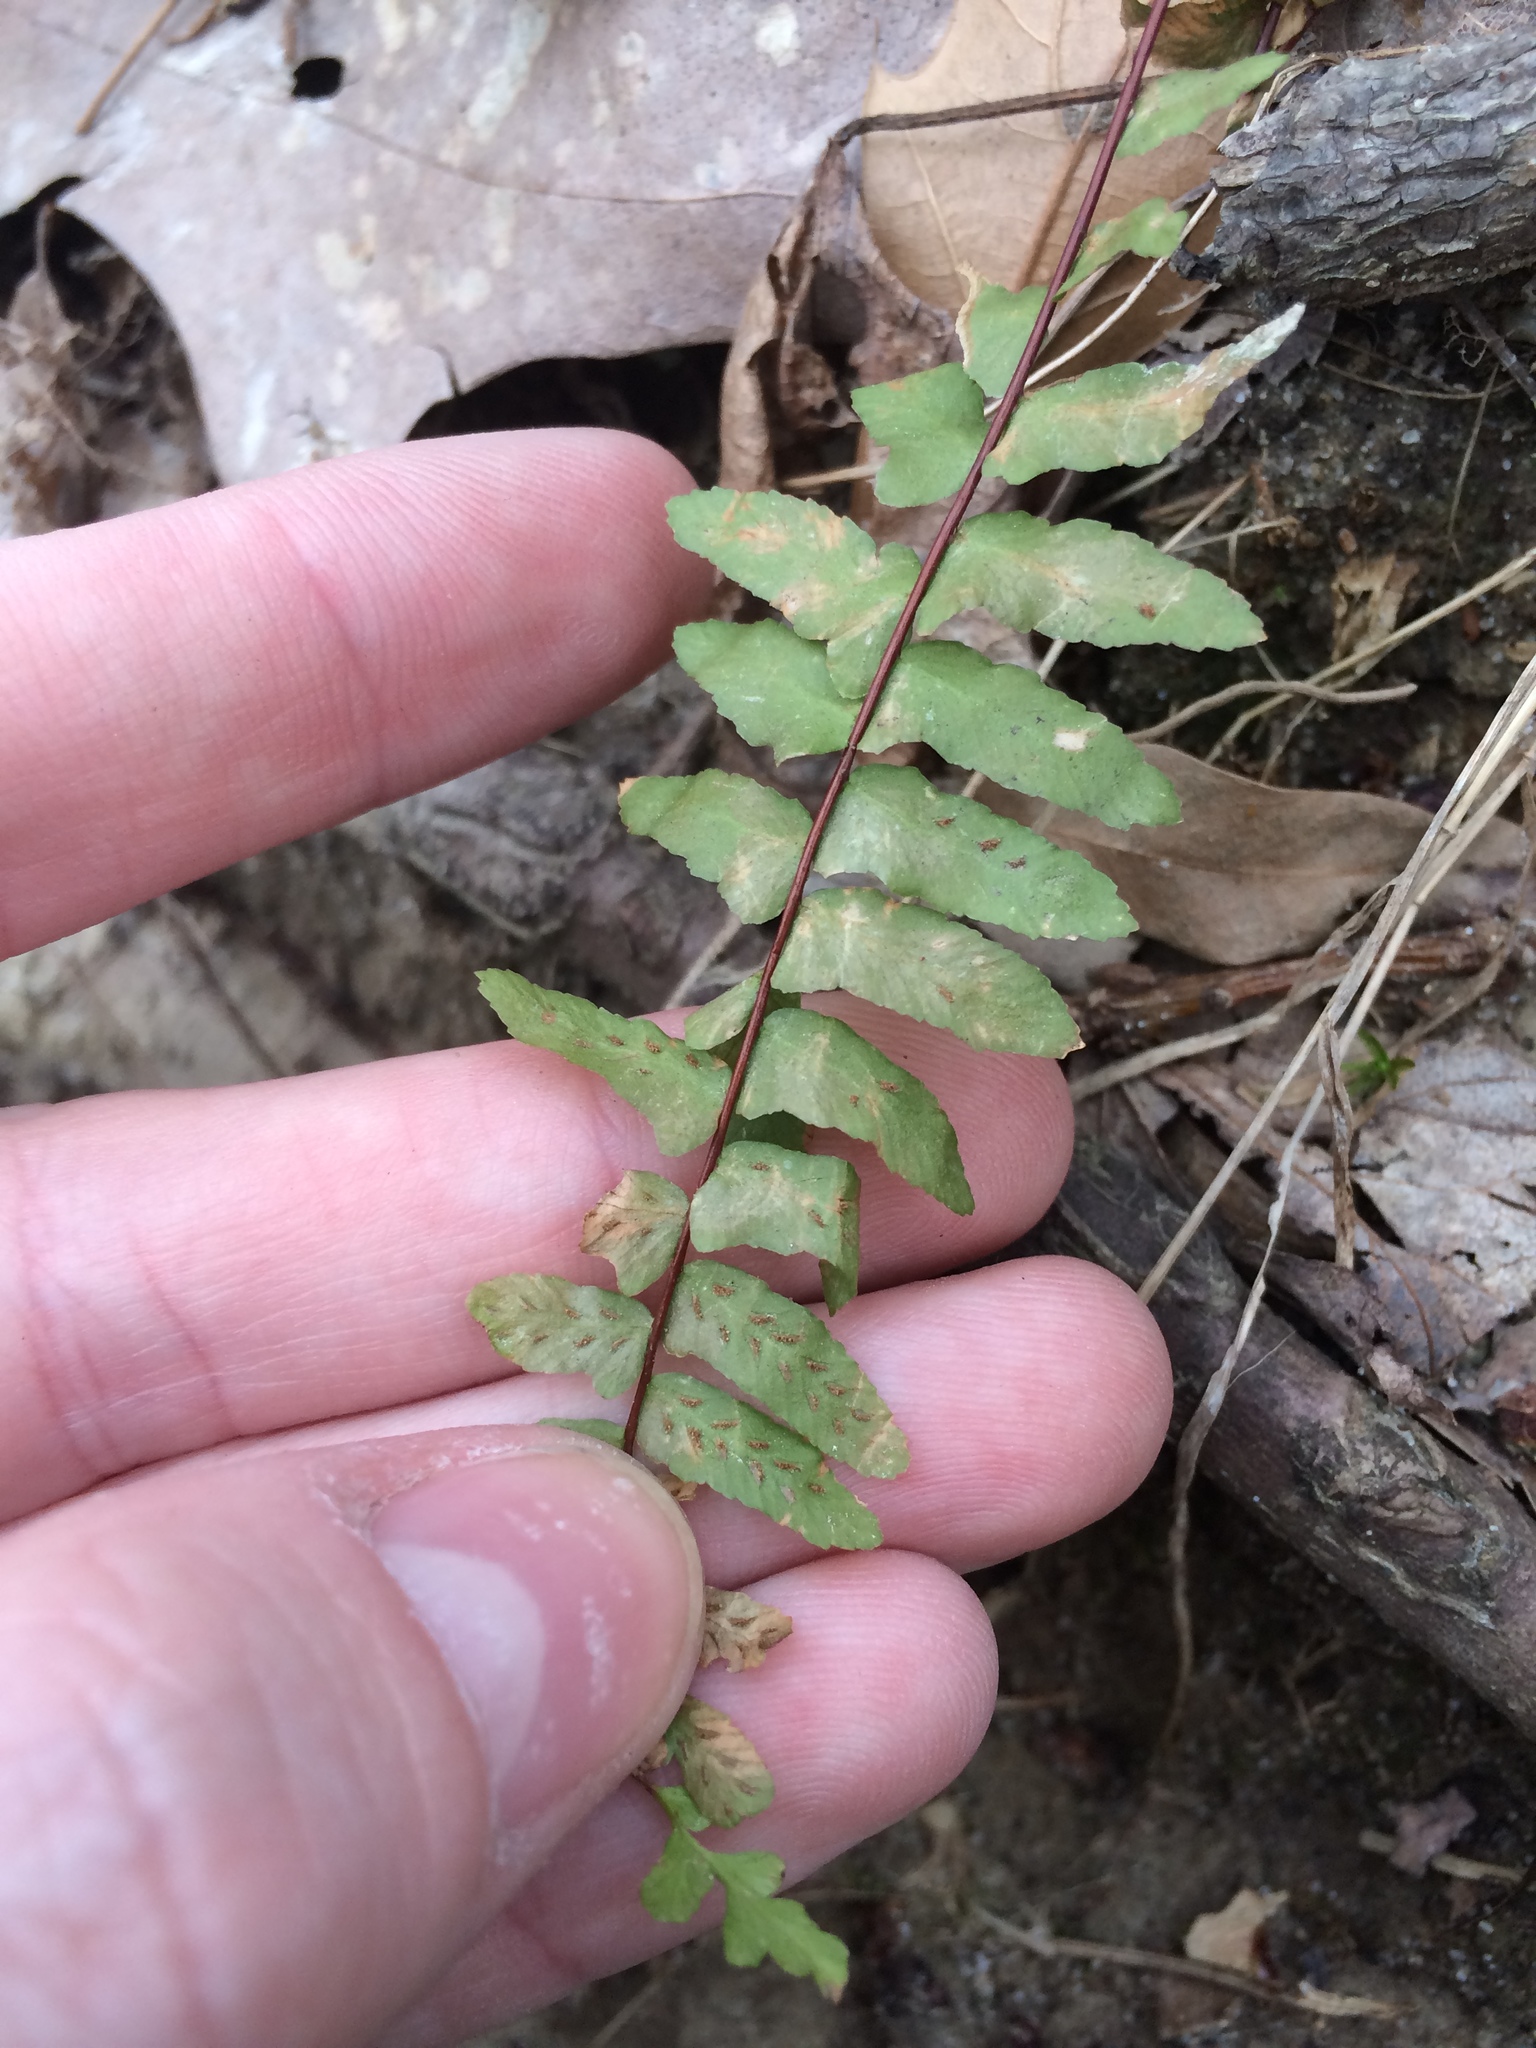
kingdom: Plantae
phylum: Tracheophyta
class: Polypodiopsida
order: Polypodiales
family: Aspleniaceae
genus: Asplenium
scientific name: Asplenium platyneuron
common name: Ebony spleenwort
